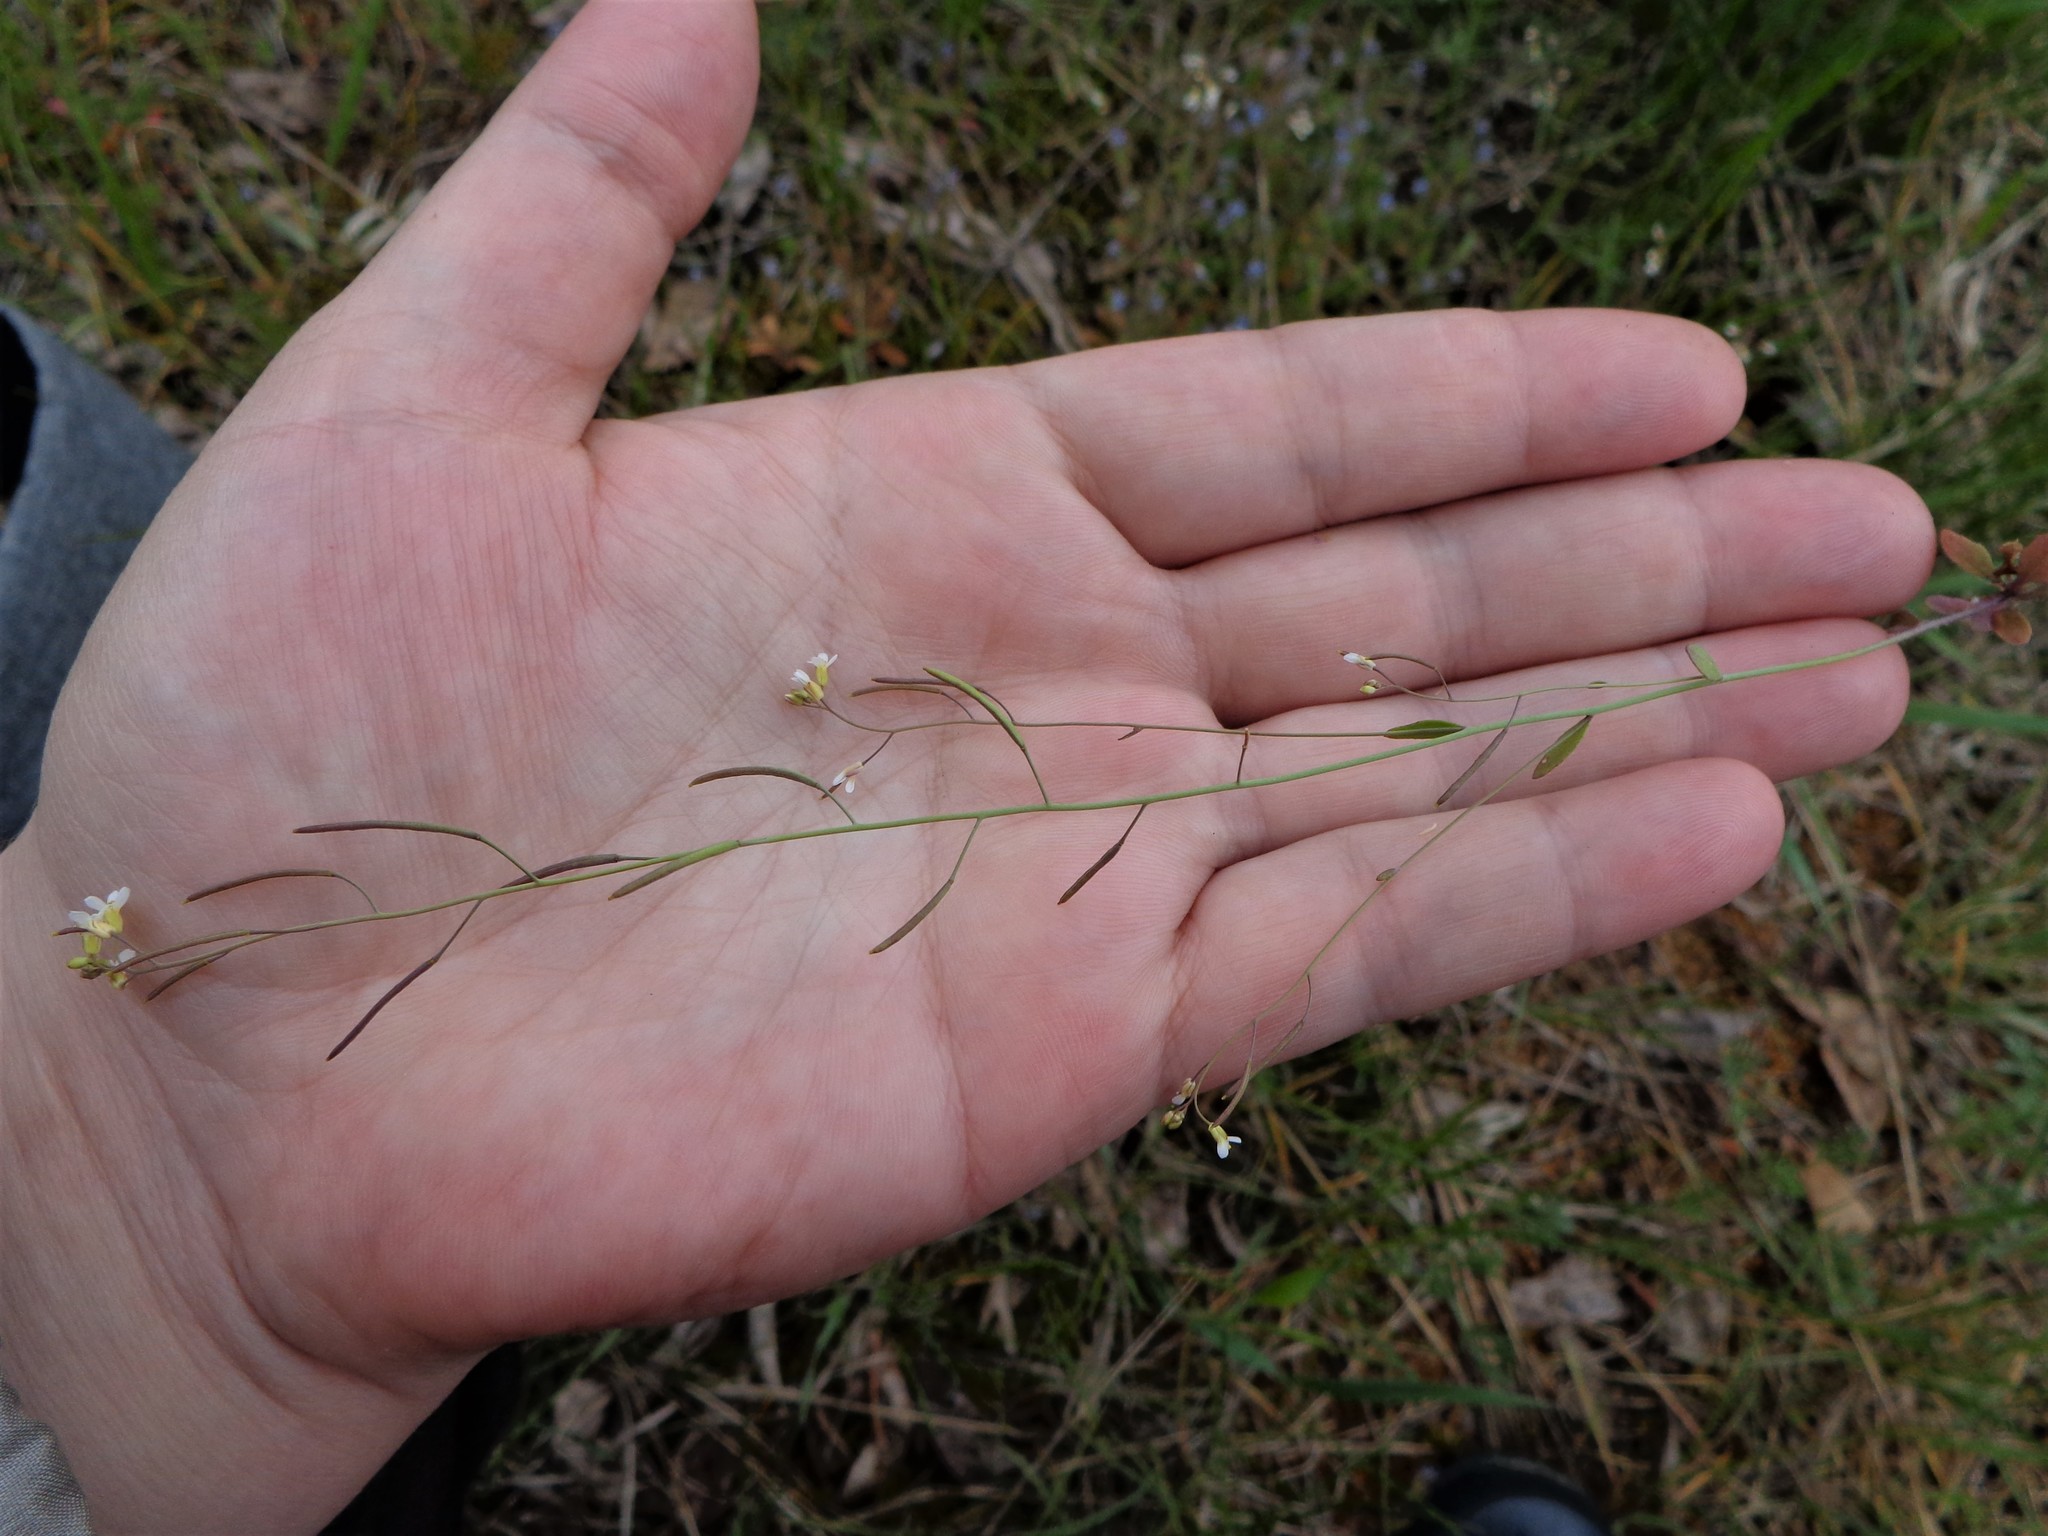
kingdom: Plantae
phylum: Tracheophyta
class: Magnoliopsida
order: Brassicales
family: Brassicaceae
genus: Arabidopsis
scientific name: Arabidopsis thaliana
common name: Thale cress
